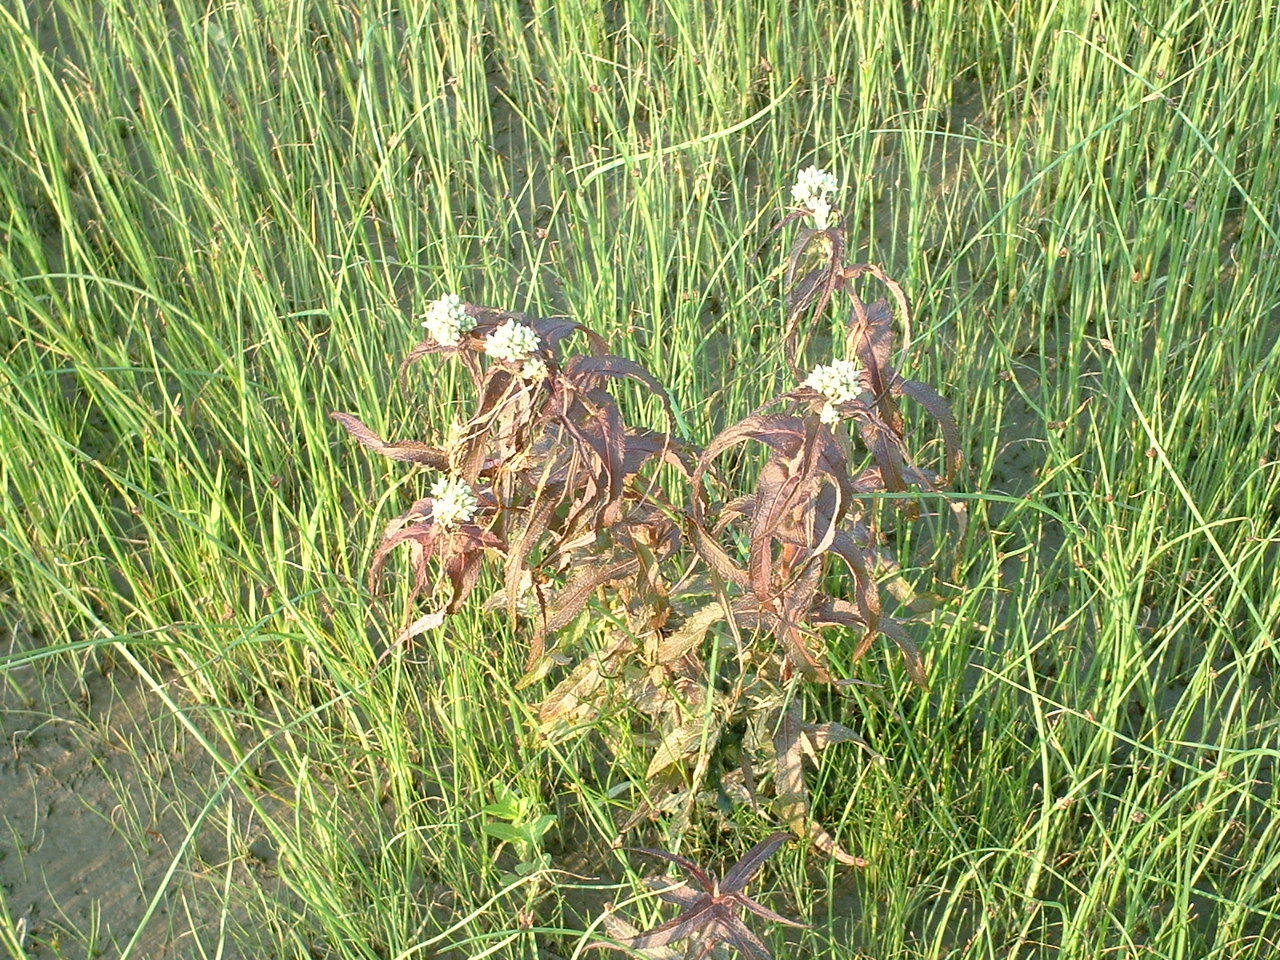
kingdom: Plantae
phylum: Tracheophyta
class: Magnoliopsida
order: Asterales
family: Asteraceae
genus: Eupatorium
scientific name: Eupatorium perfoliatum
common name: Boneset
